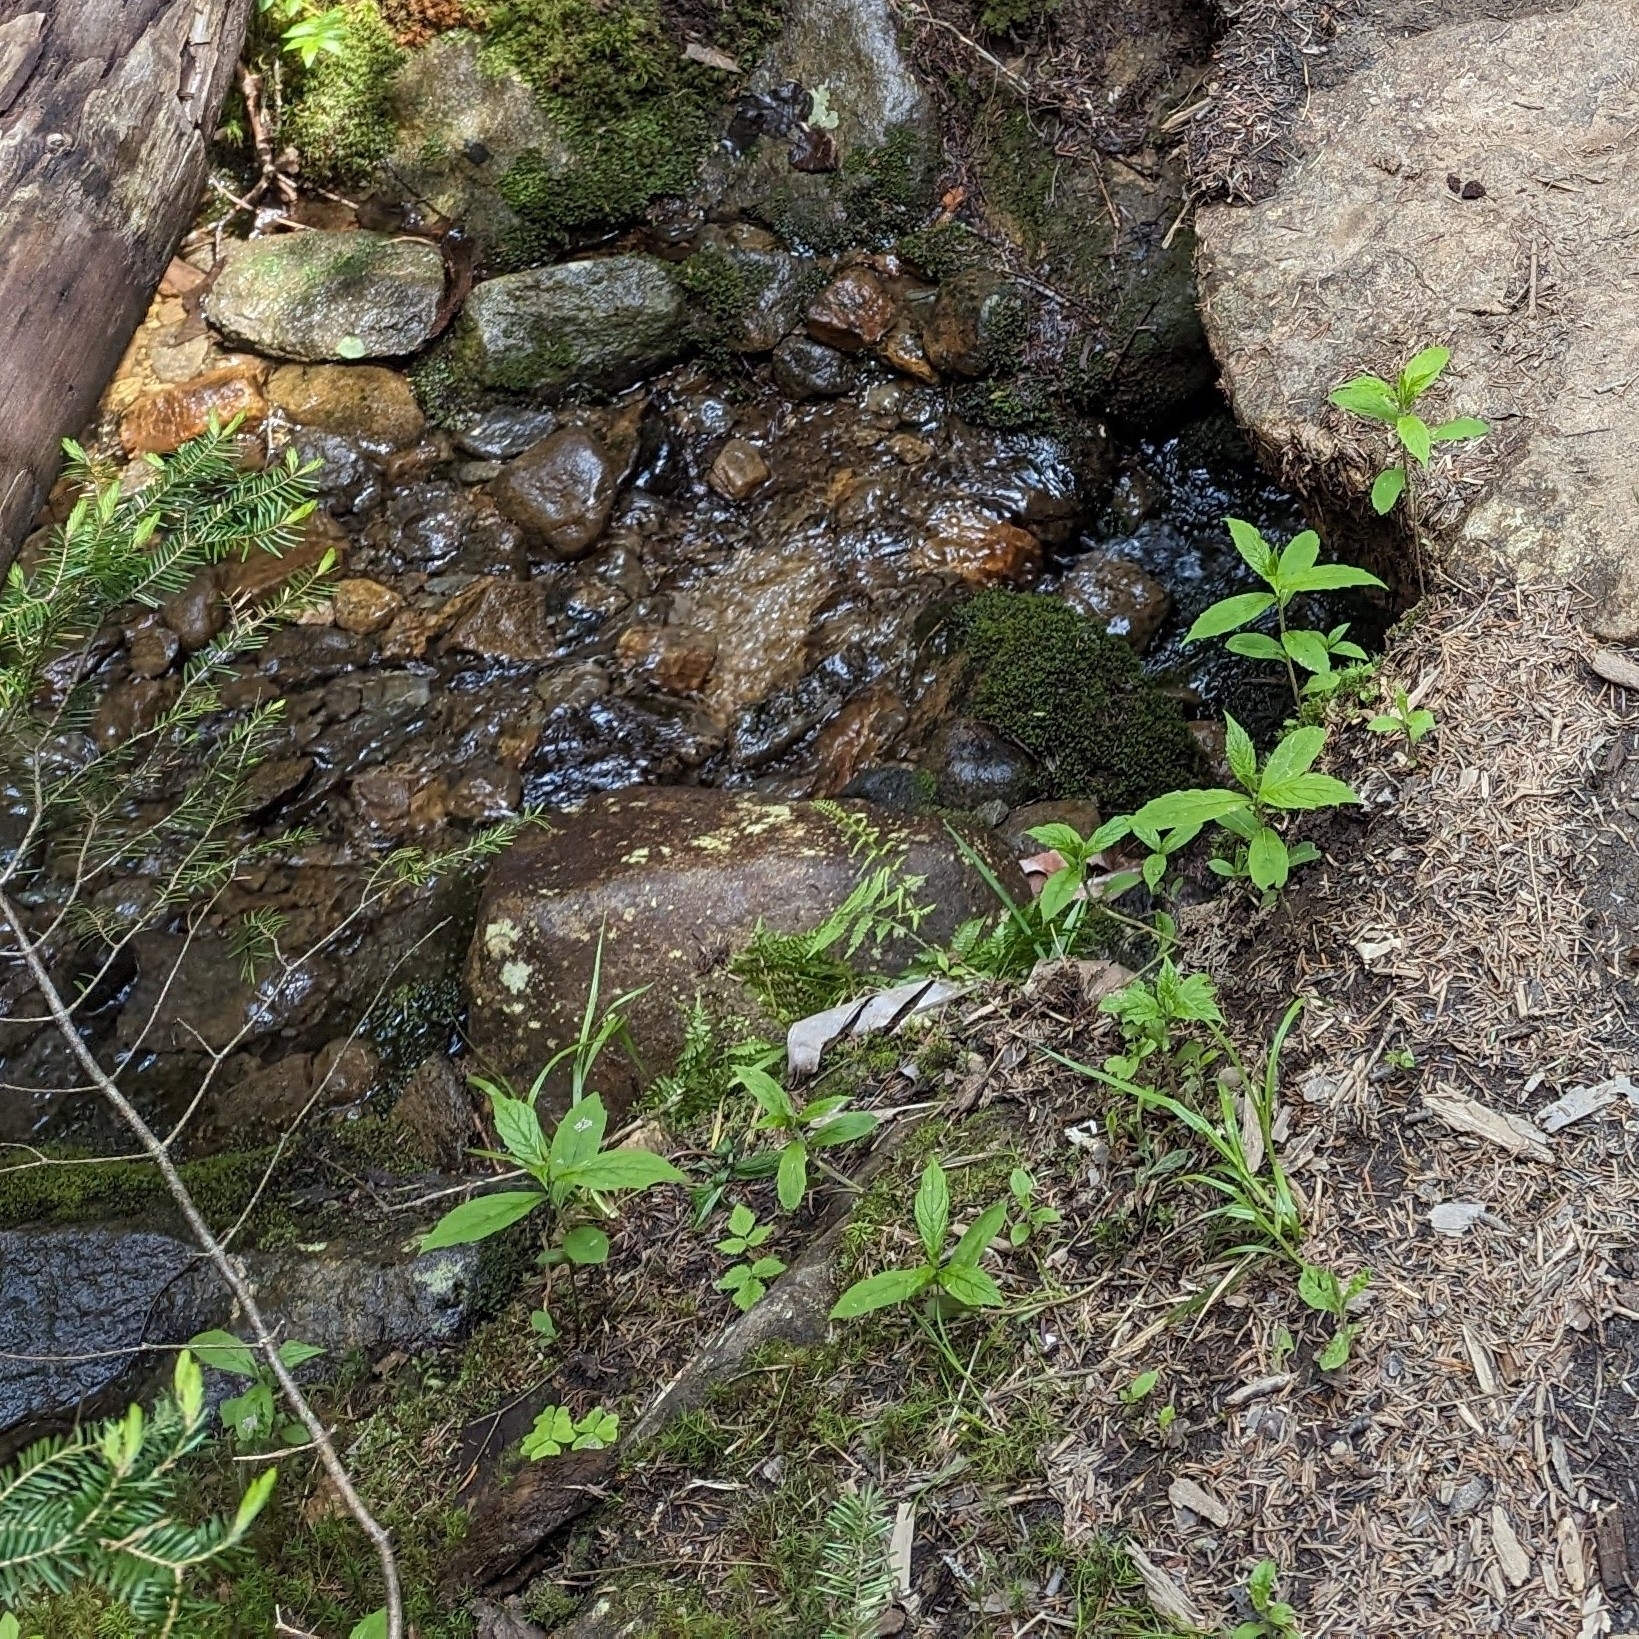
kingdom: Plantae
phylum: Tracheophyta
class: Magnoliopsida
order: Asterales
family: Asteraceae
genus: Oclemena
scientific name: Oclemena acuminata
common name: Mountain aster
